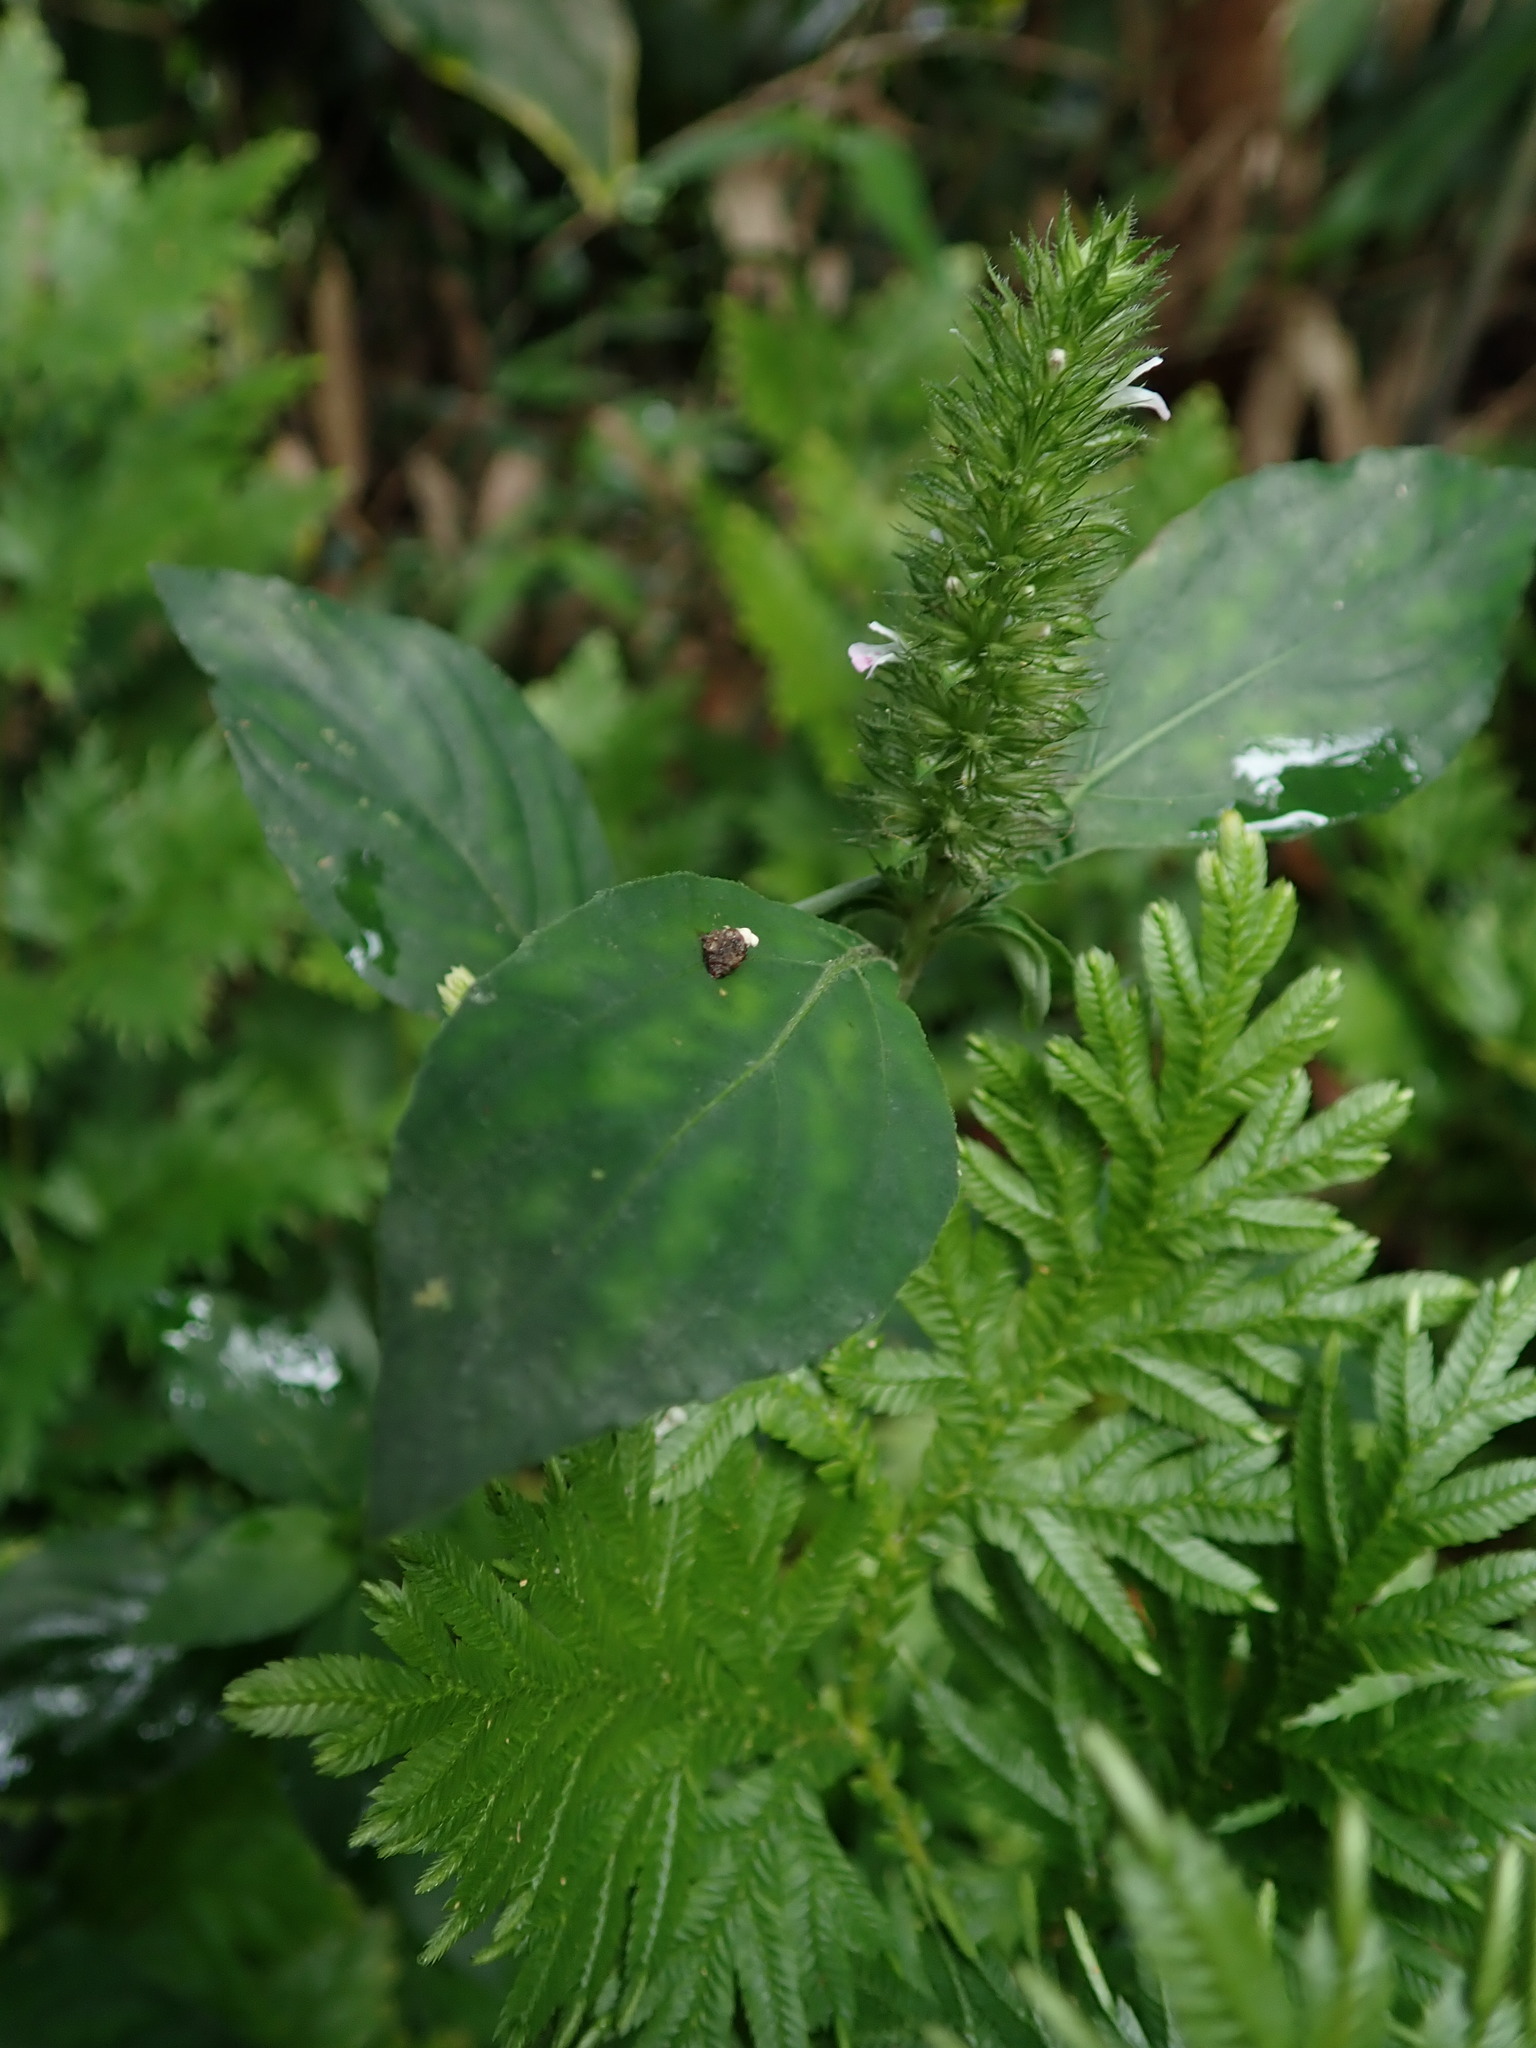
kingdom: Plantae
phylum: Tracheophyta
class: Magnoliopsida
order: Lamiales
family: Acanthaceae
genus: Lepidagathis
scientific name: Lepidagathis alopecuroidea
